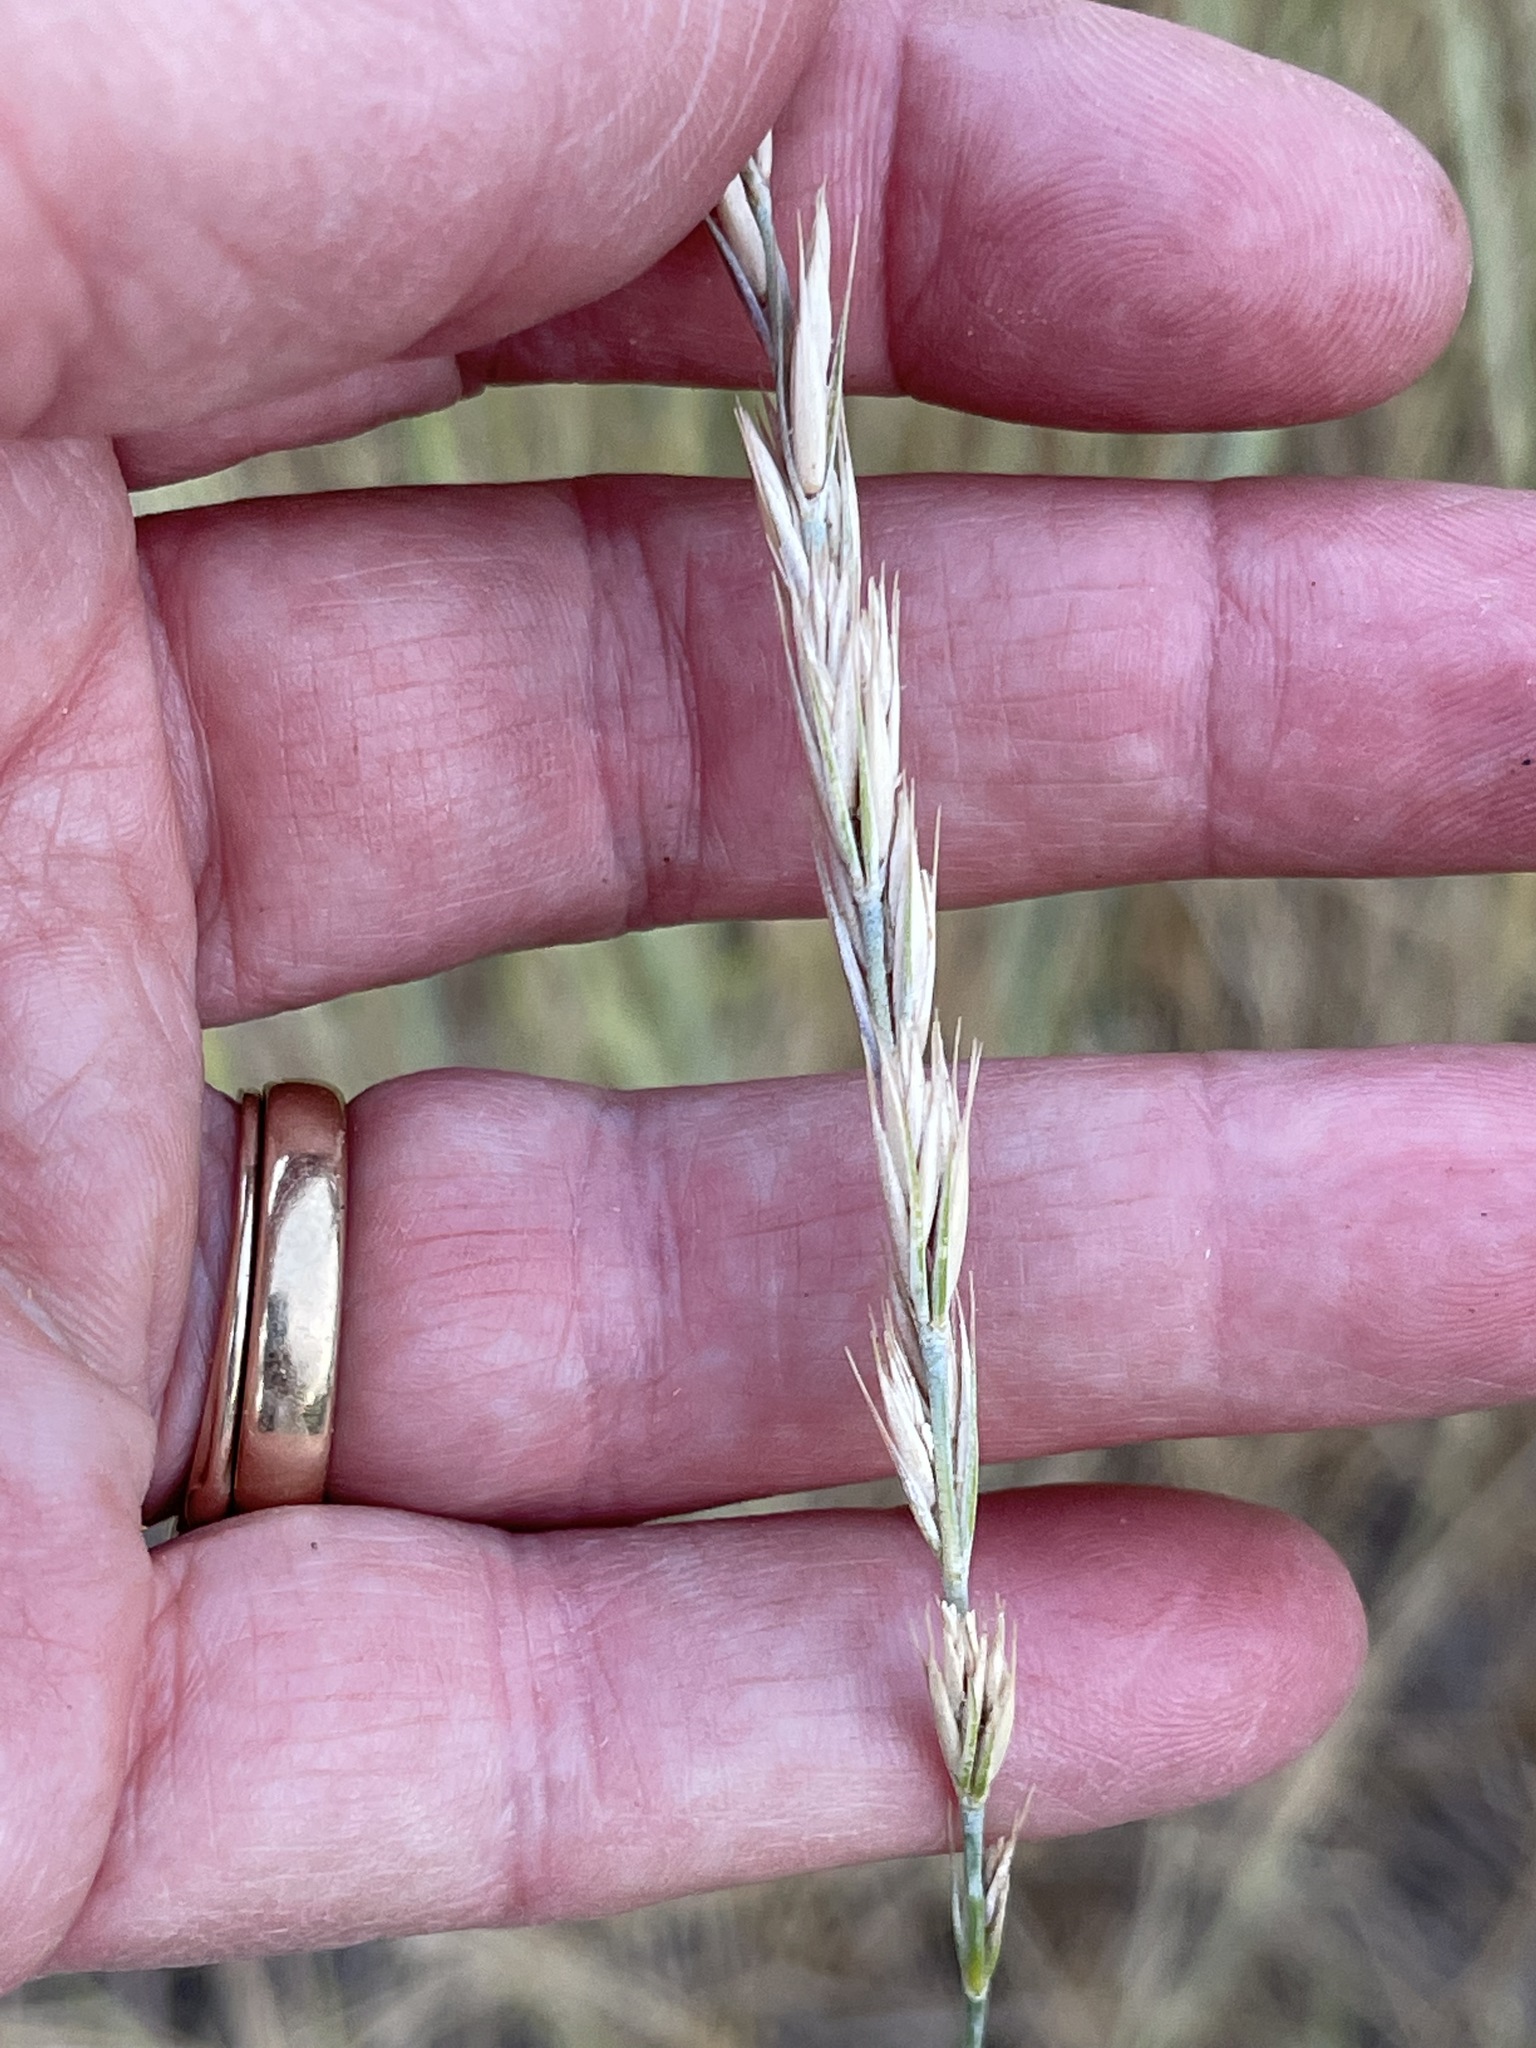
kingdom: Plantae
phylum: Tracheophyta
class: Liliopsida
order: Poales
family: Poaceae
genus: Leymus
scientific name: Leymus triticoides
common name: Beardless wild rye
